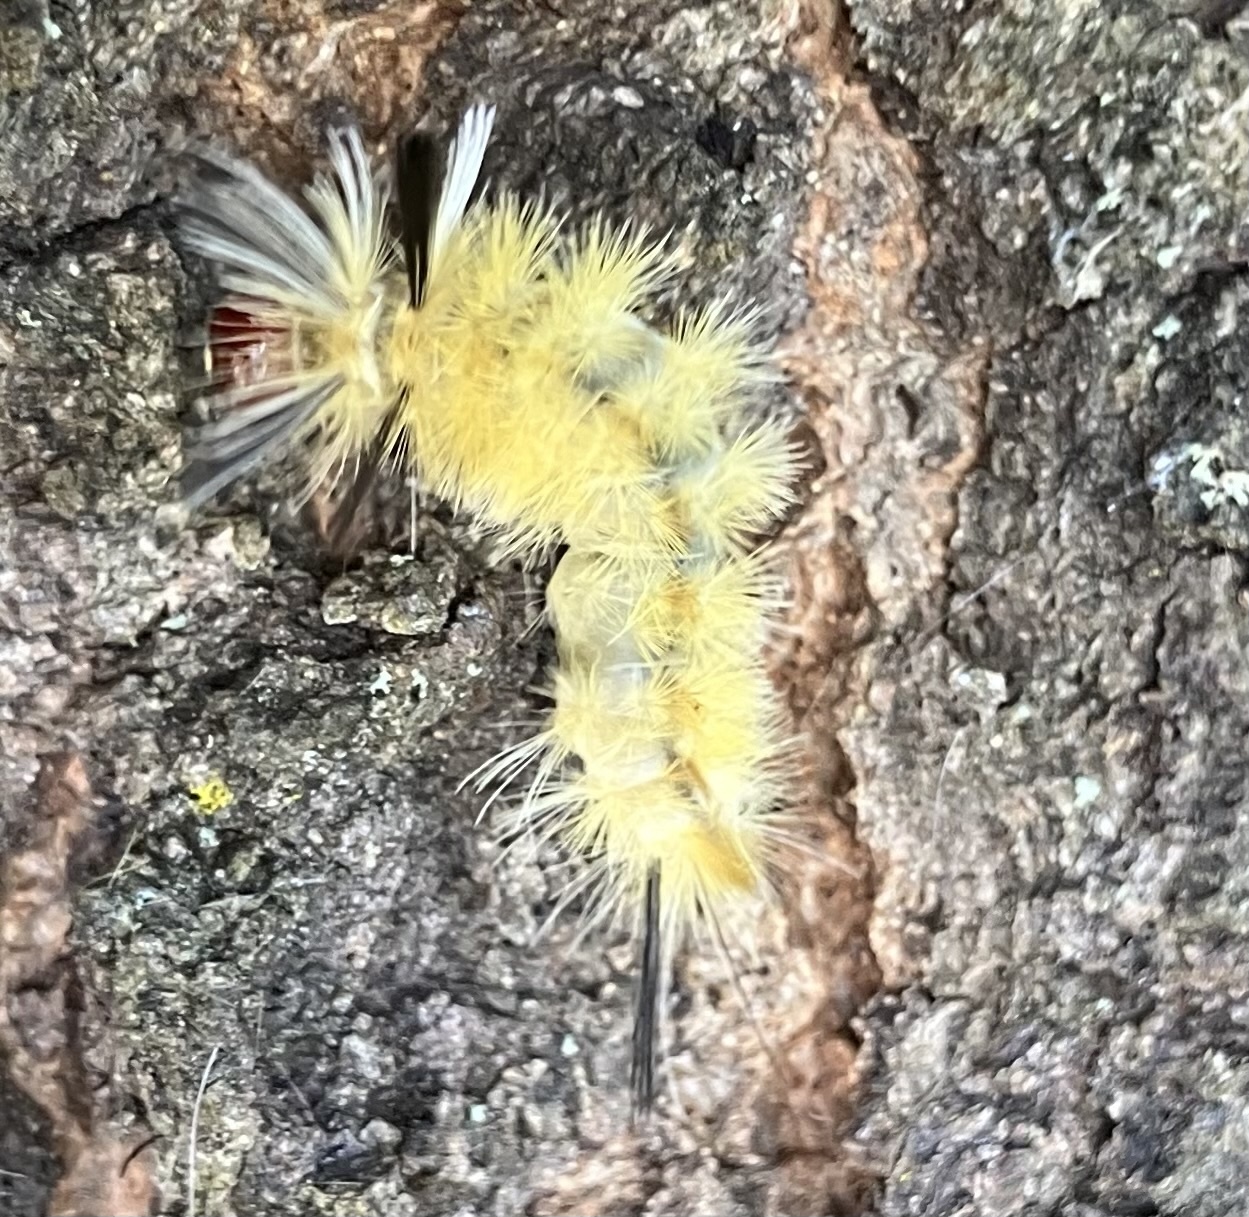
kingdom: Animalia
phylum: Arthropoda
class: Insecta
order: Lepidoptera
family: Erebidae
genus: Halysidota
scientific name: Halysidota tessellaris
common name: Banded tussock moth
